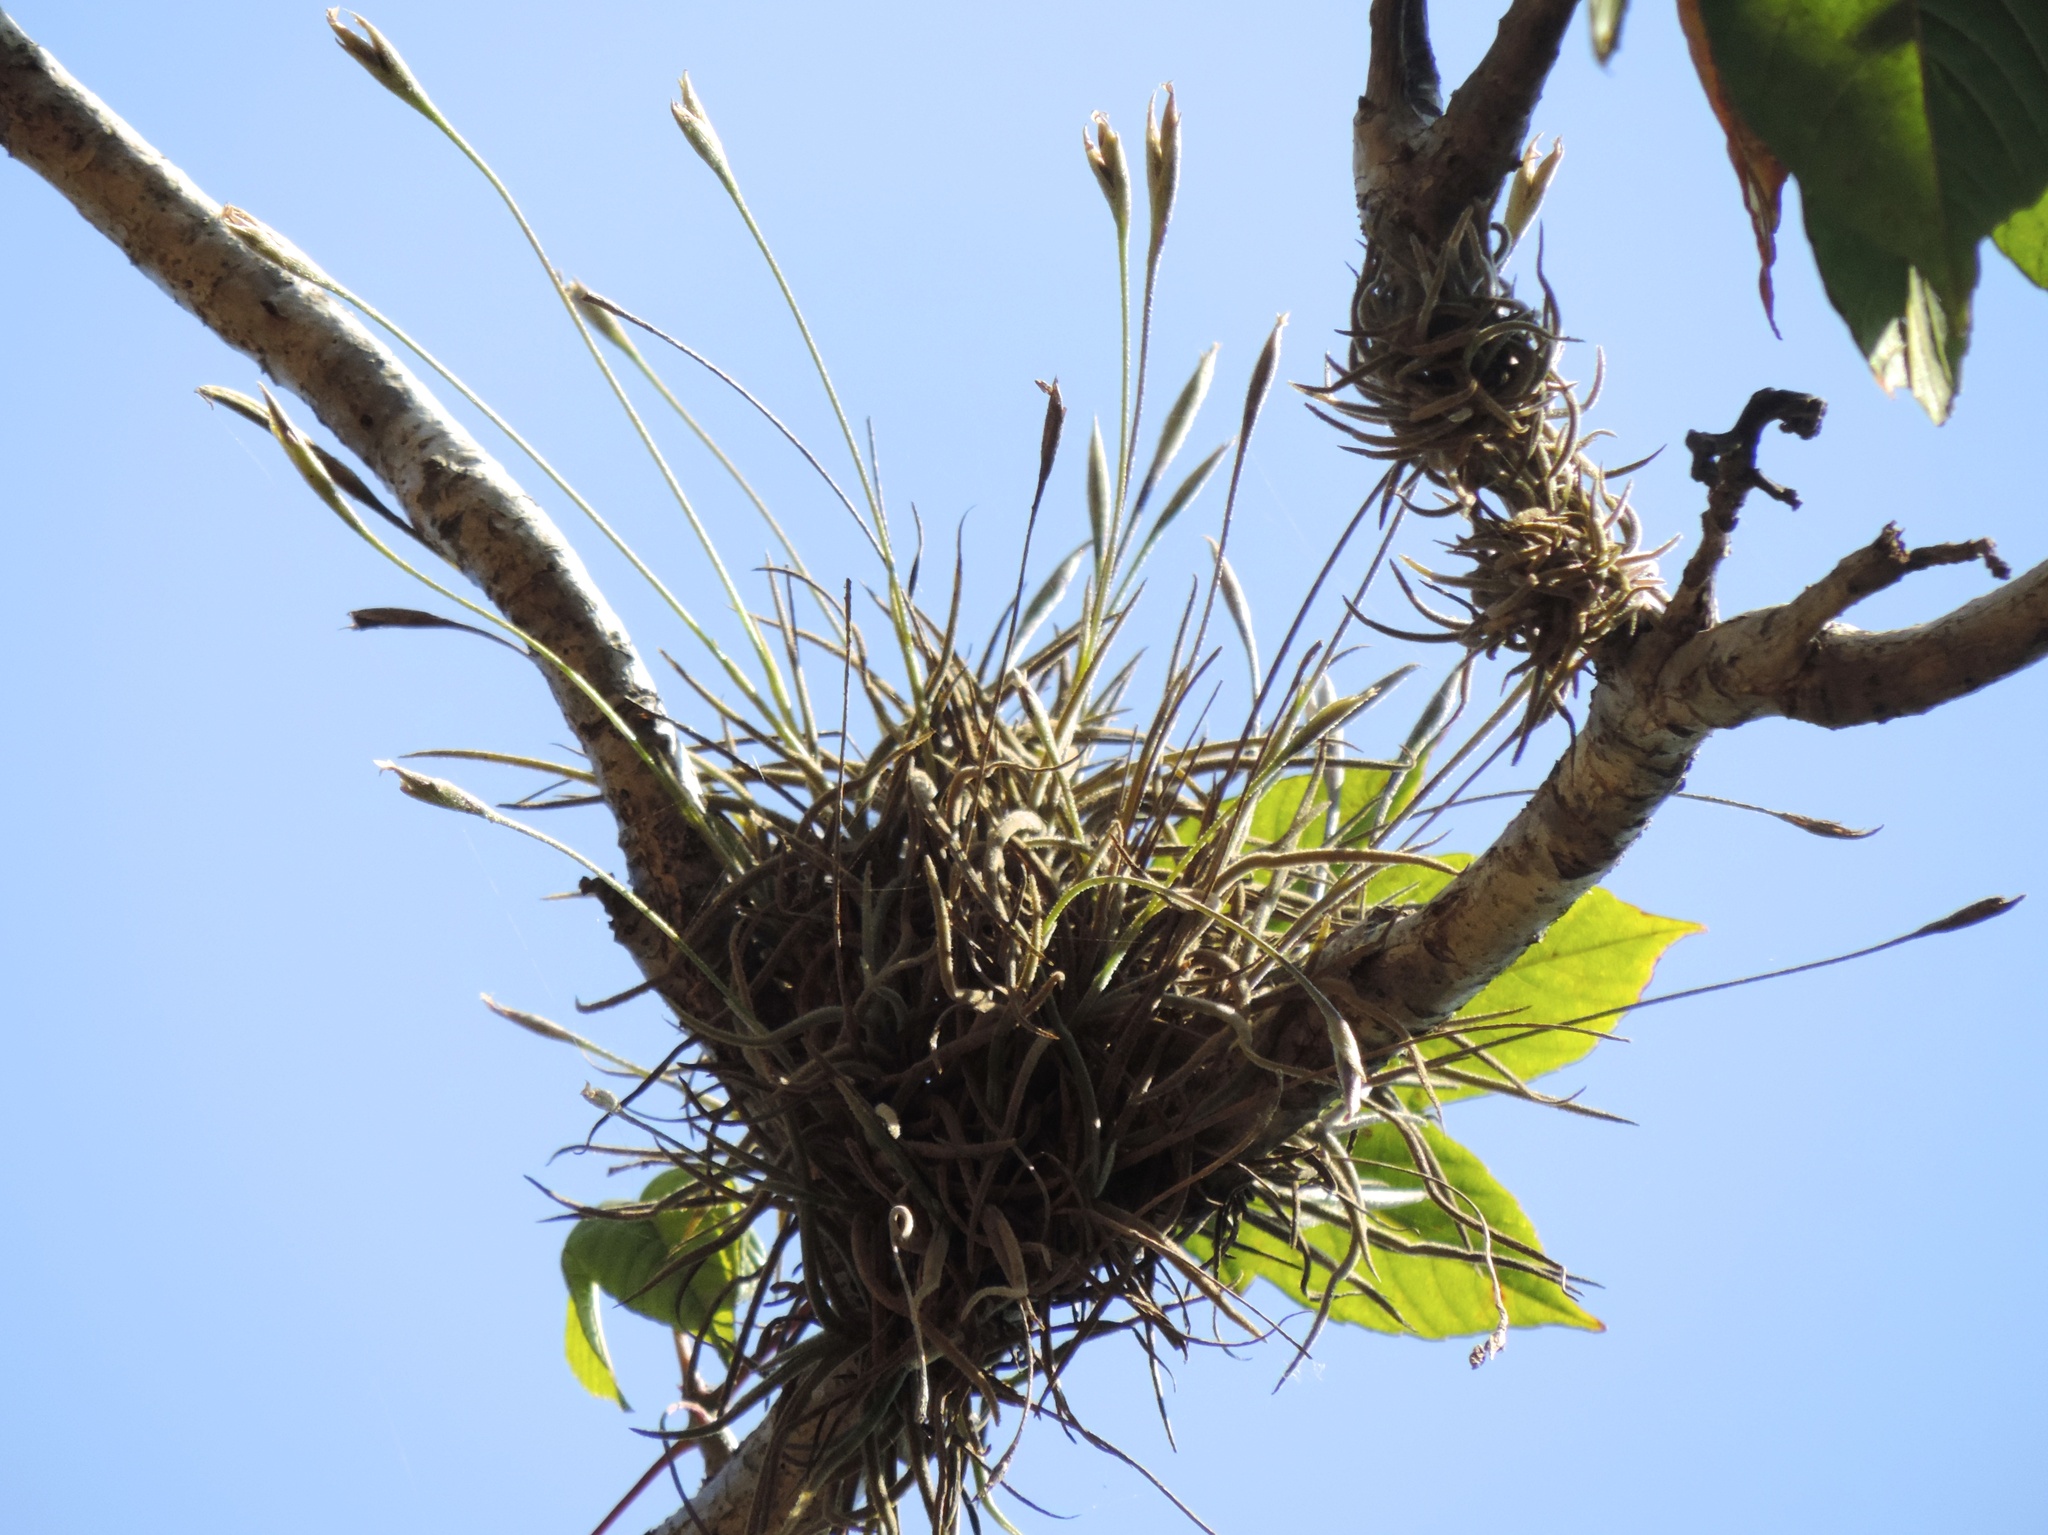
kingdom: Plantae
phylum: Tracheophyta
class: Liliopsida
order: Poales
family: Bromeliaceae
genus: Tillandsia
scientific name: Tillandsia recurvata
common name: Small ballmoss
